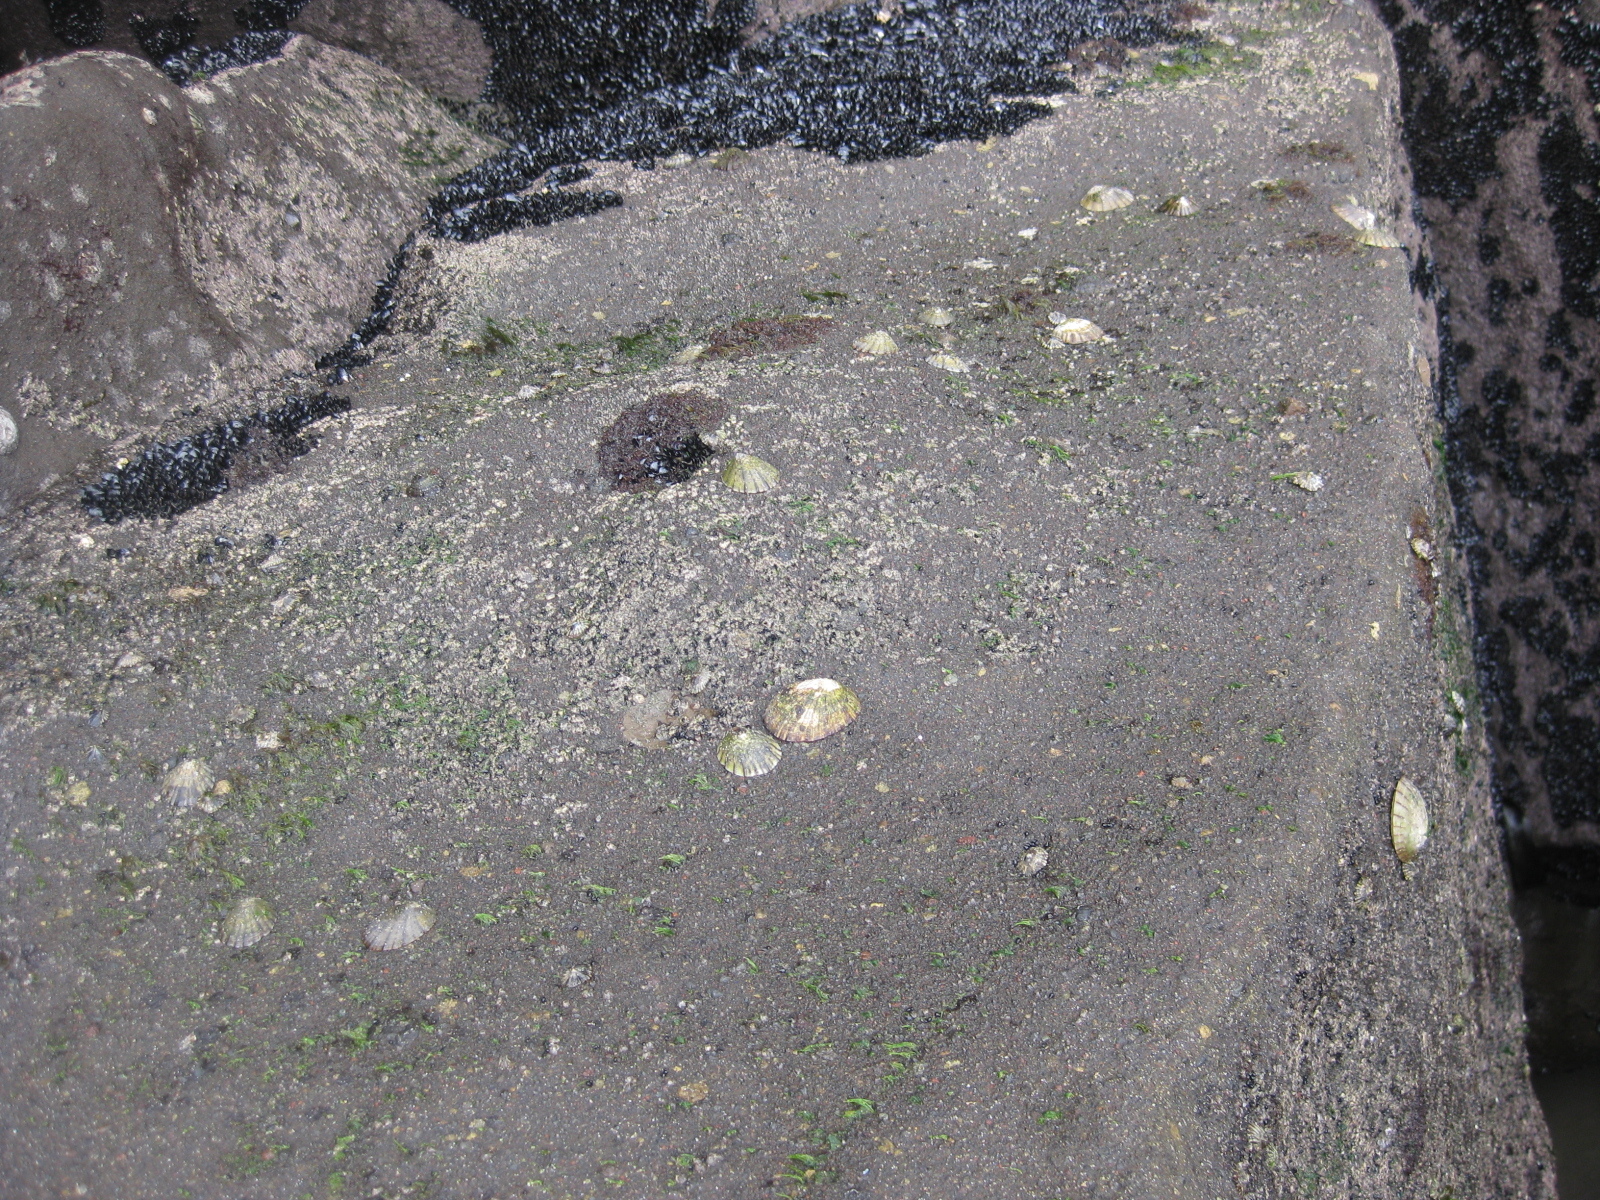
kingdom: Animalia
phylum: Mollusca
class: Gastropoda
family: Nacellidae
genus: Cellana
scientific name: Cellana radians
